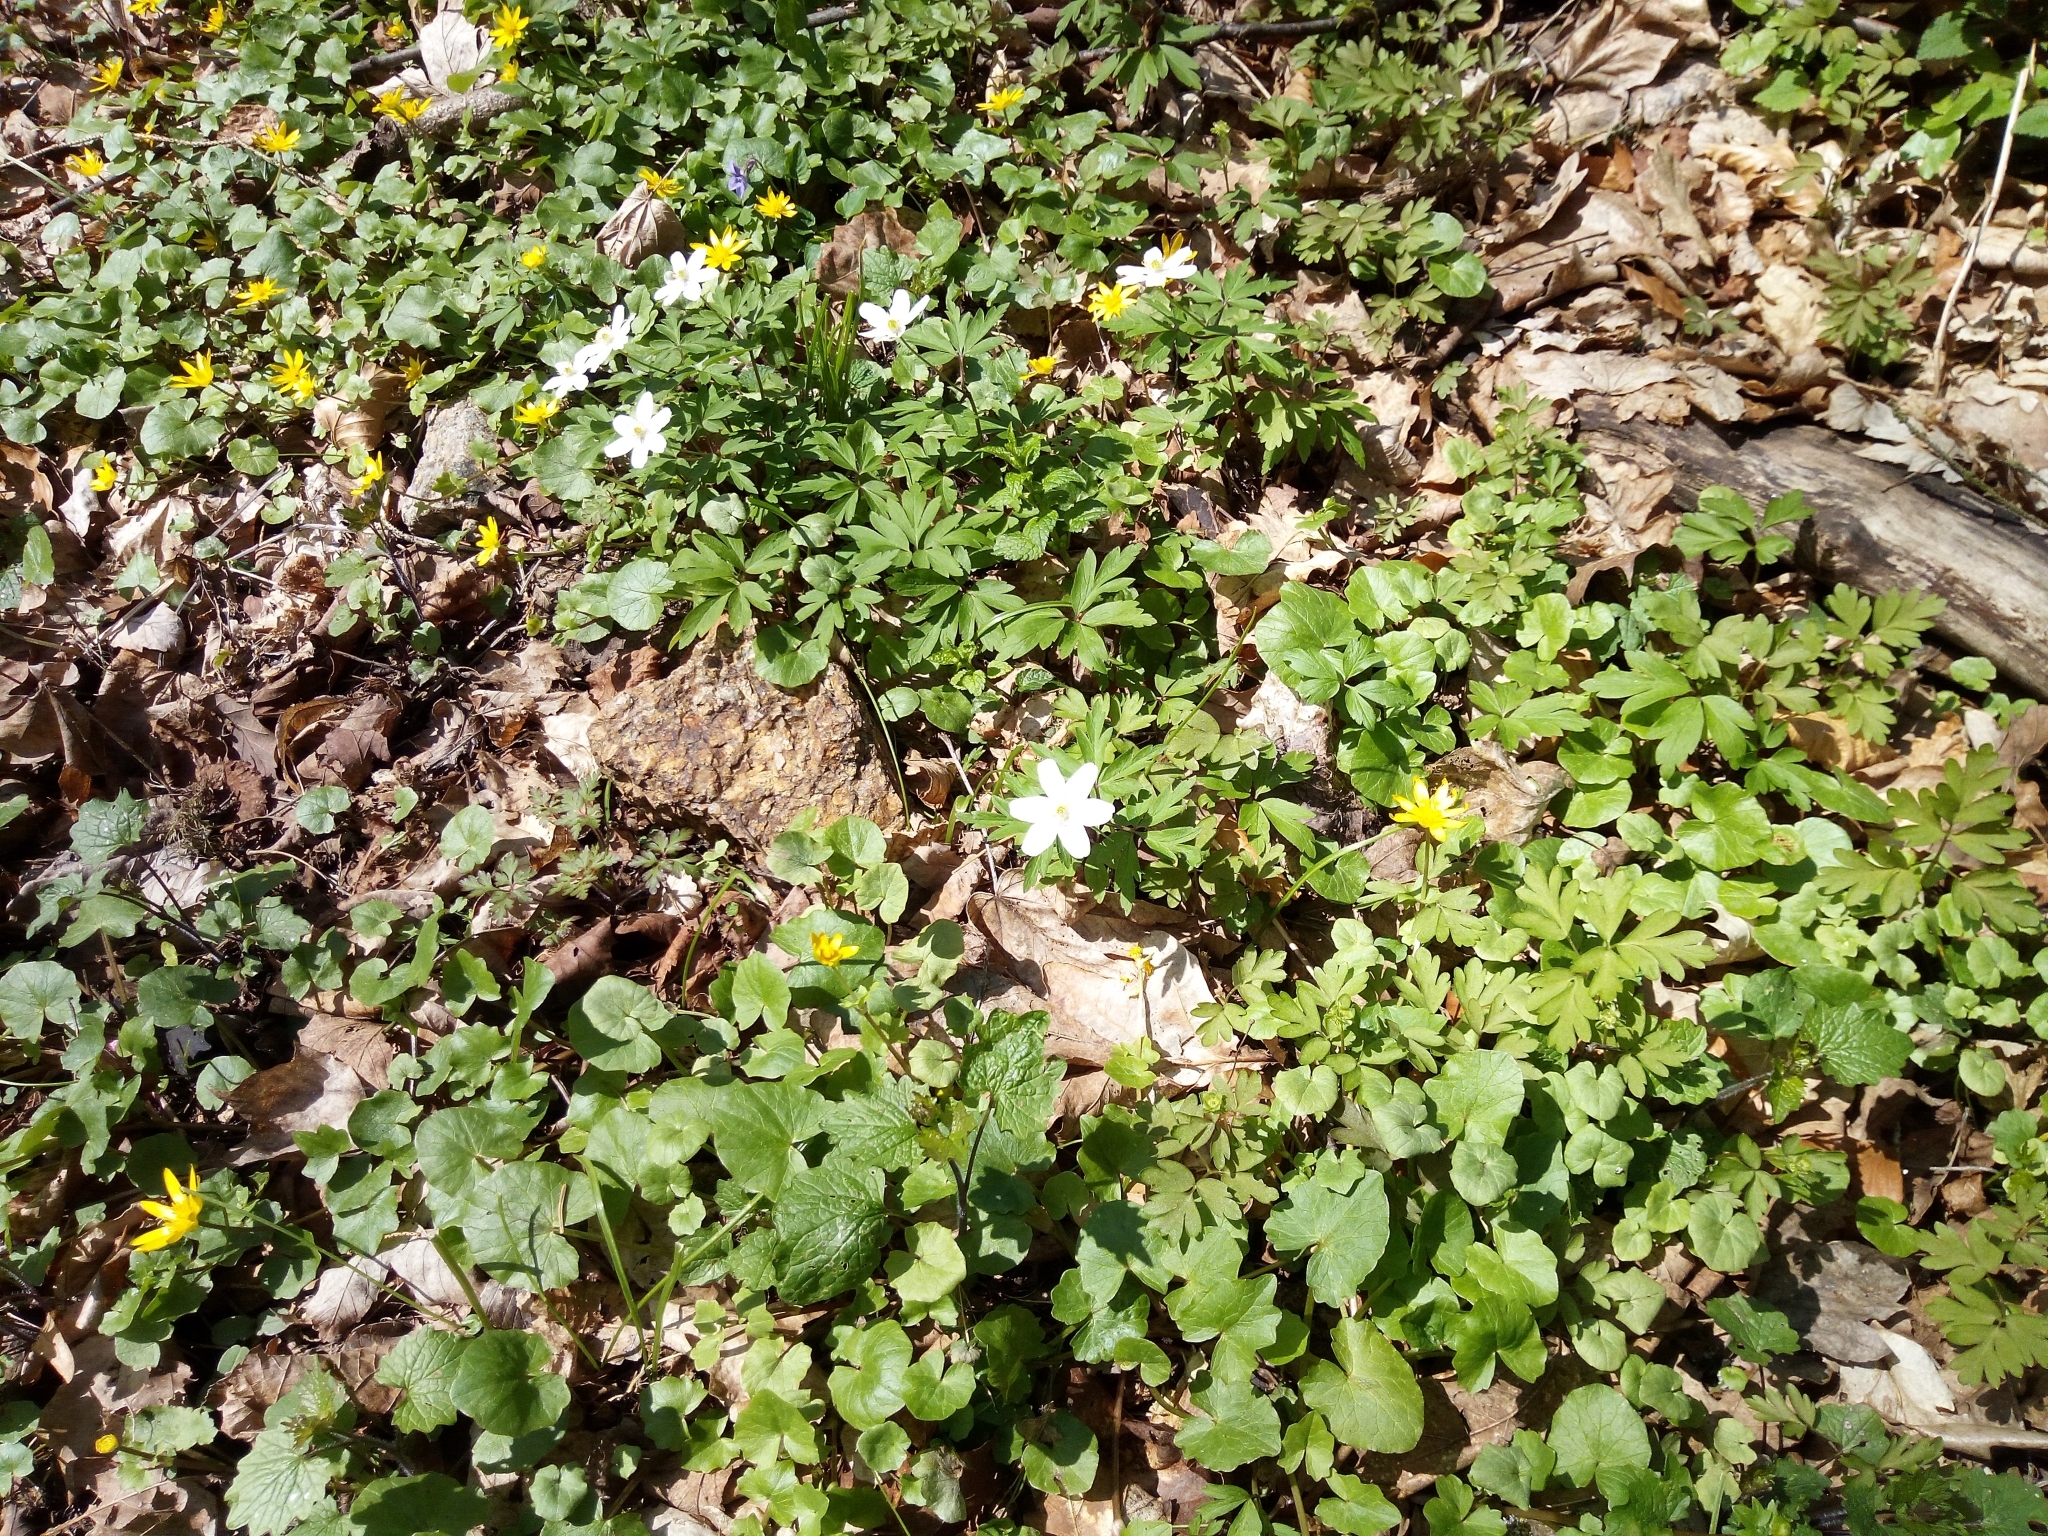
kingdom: Plantae
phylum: Tracheophyta
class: Magnoliopsida
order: Ranunculales
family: Ranunculaceae
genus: Ficaria
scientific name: Ficaria verna
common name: Lesser celandine
